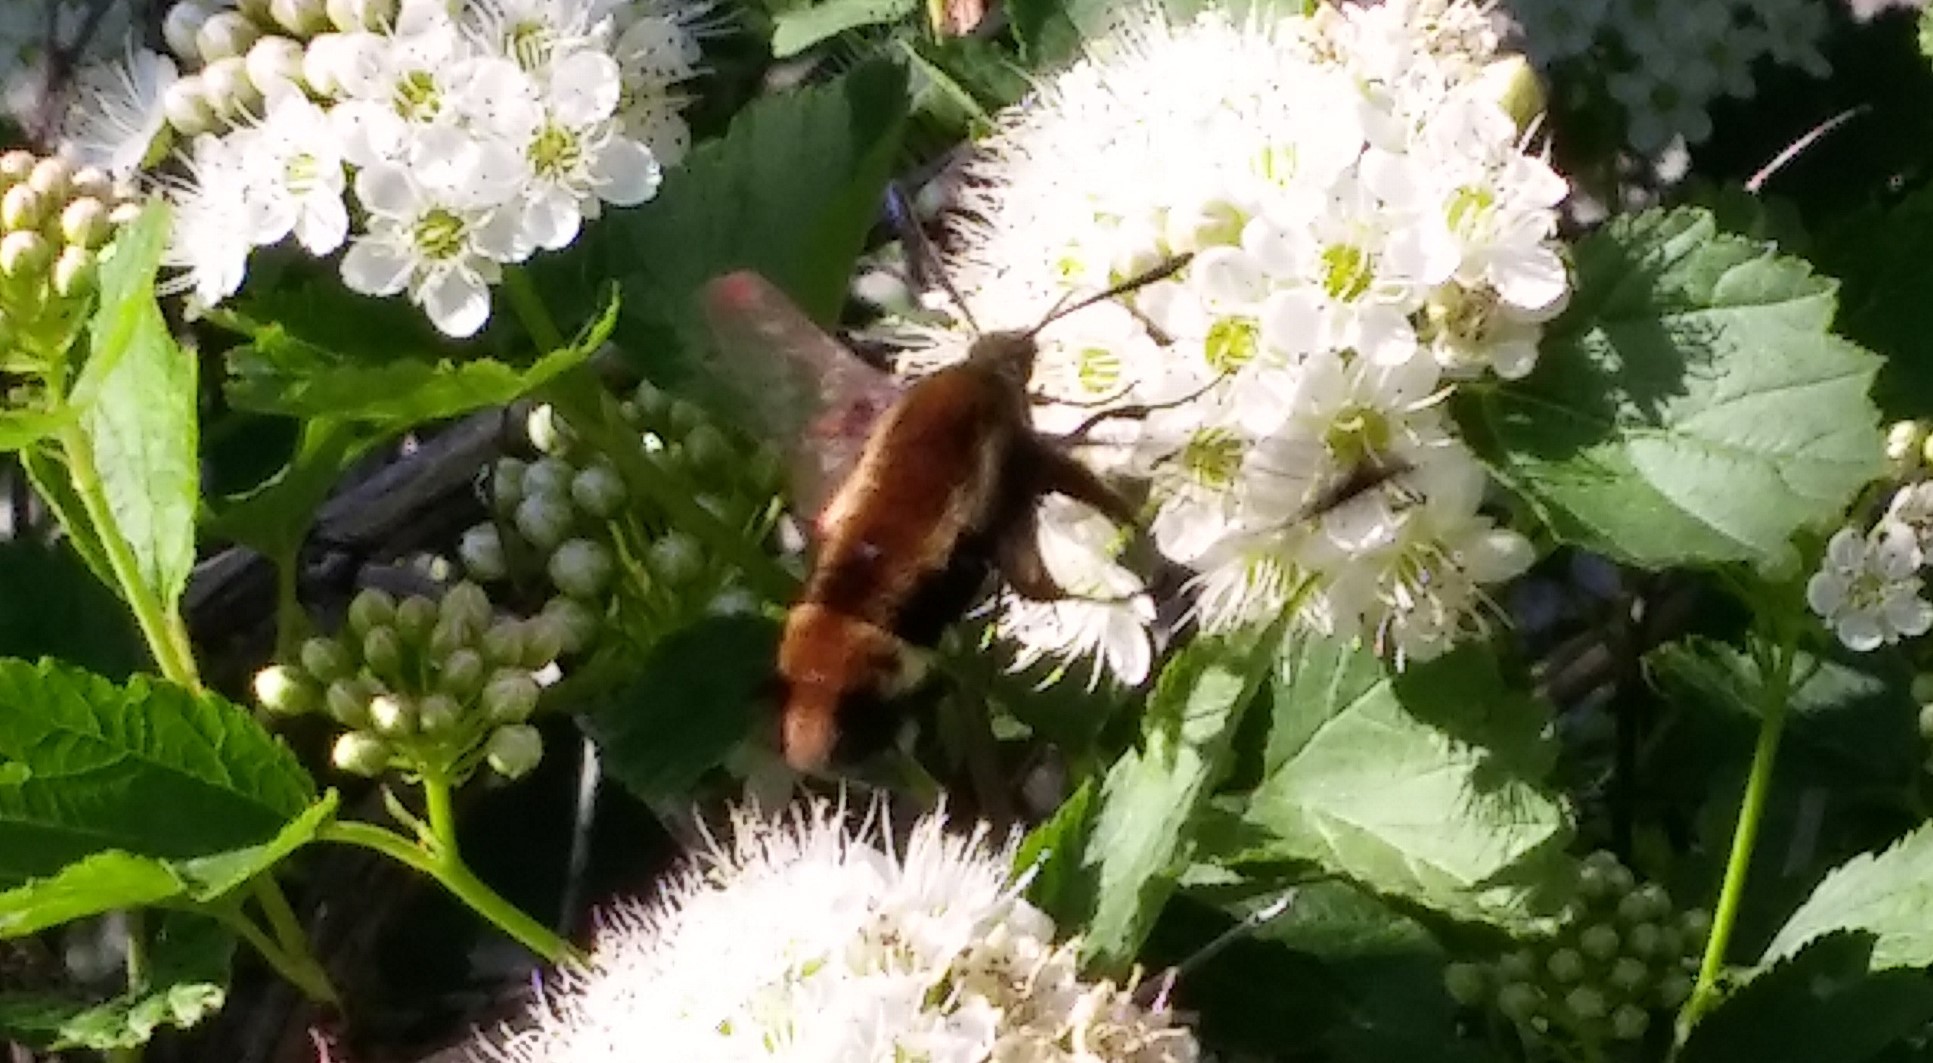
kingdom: Animalia
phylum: Arthropoda
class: Insecta
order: Lepidoptera
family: Sphingidae
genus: Hemaris
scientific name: Hemaris diffinis
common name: Bumblebee moth
